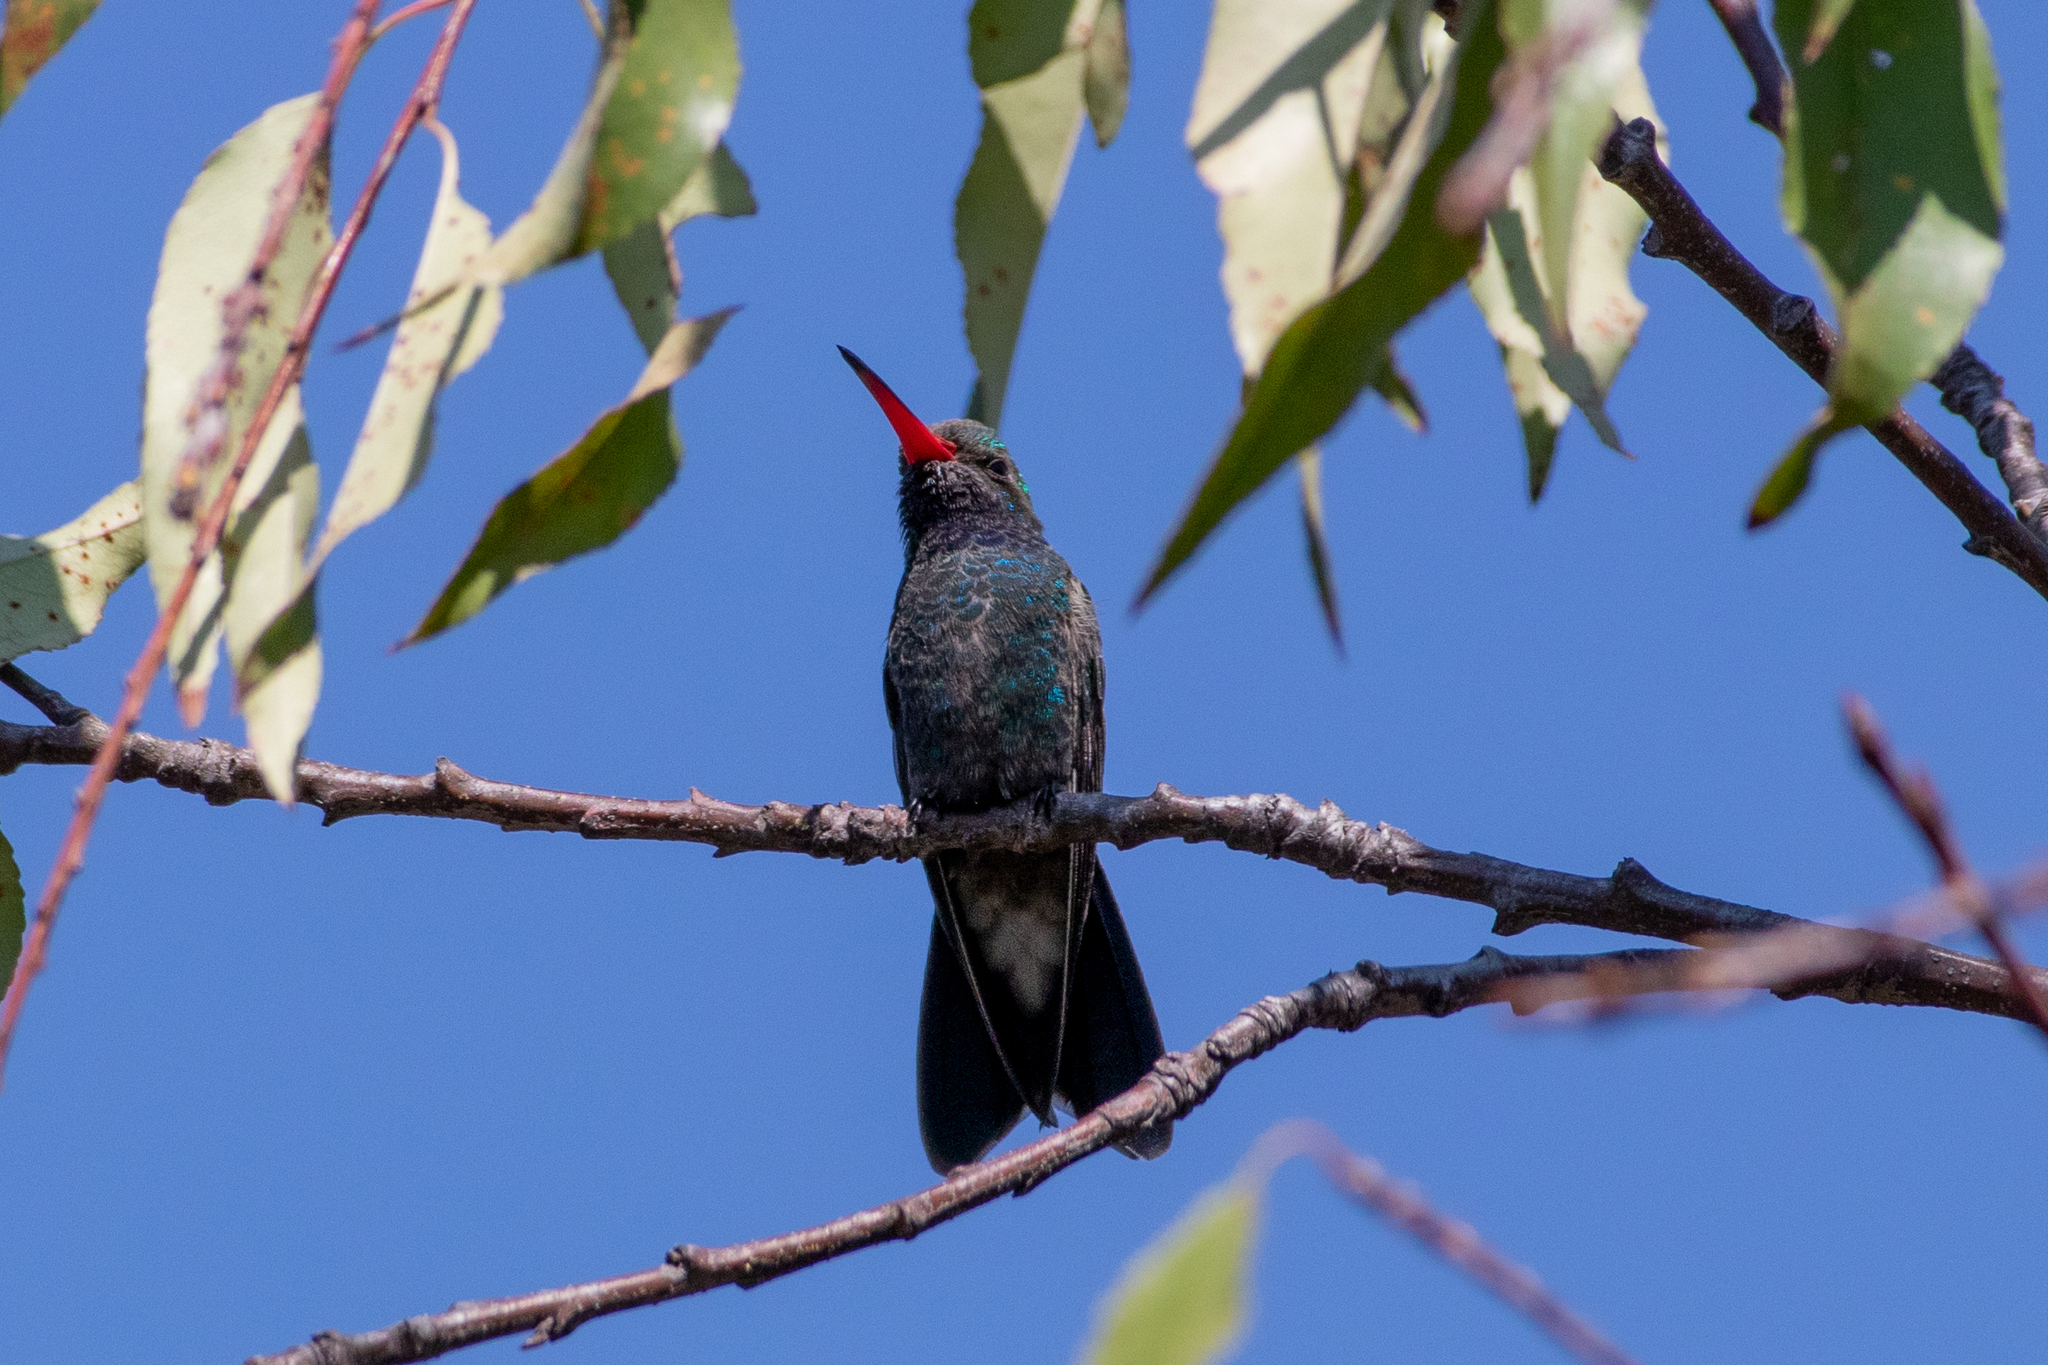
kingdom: Animalia
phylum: Chordata
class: Aves
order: Apodiformes
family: Trochilidae
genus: Cynanthus
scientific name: Cynanthus latirostris
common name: Broad-billed hummingbird
